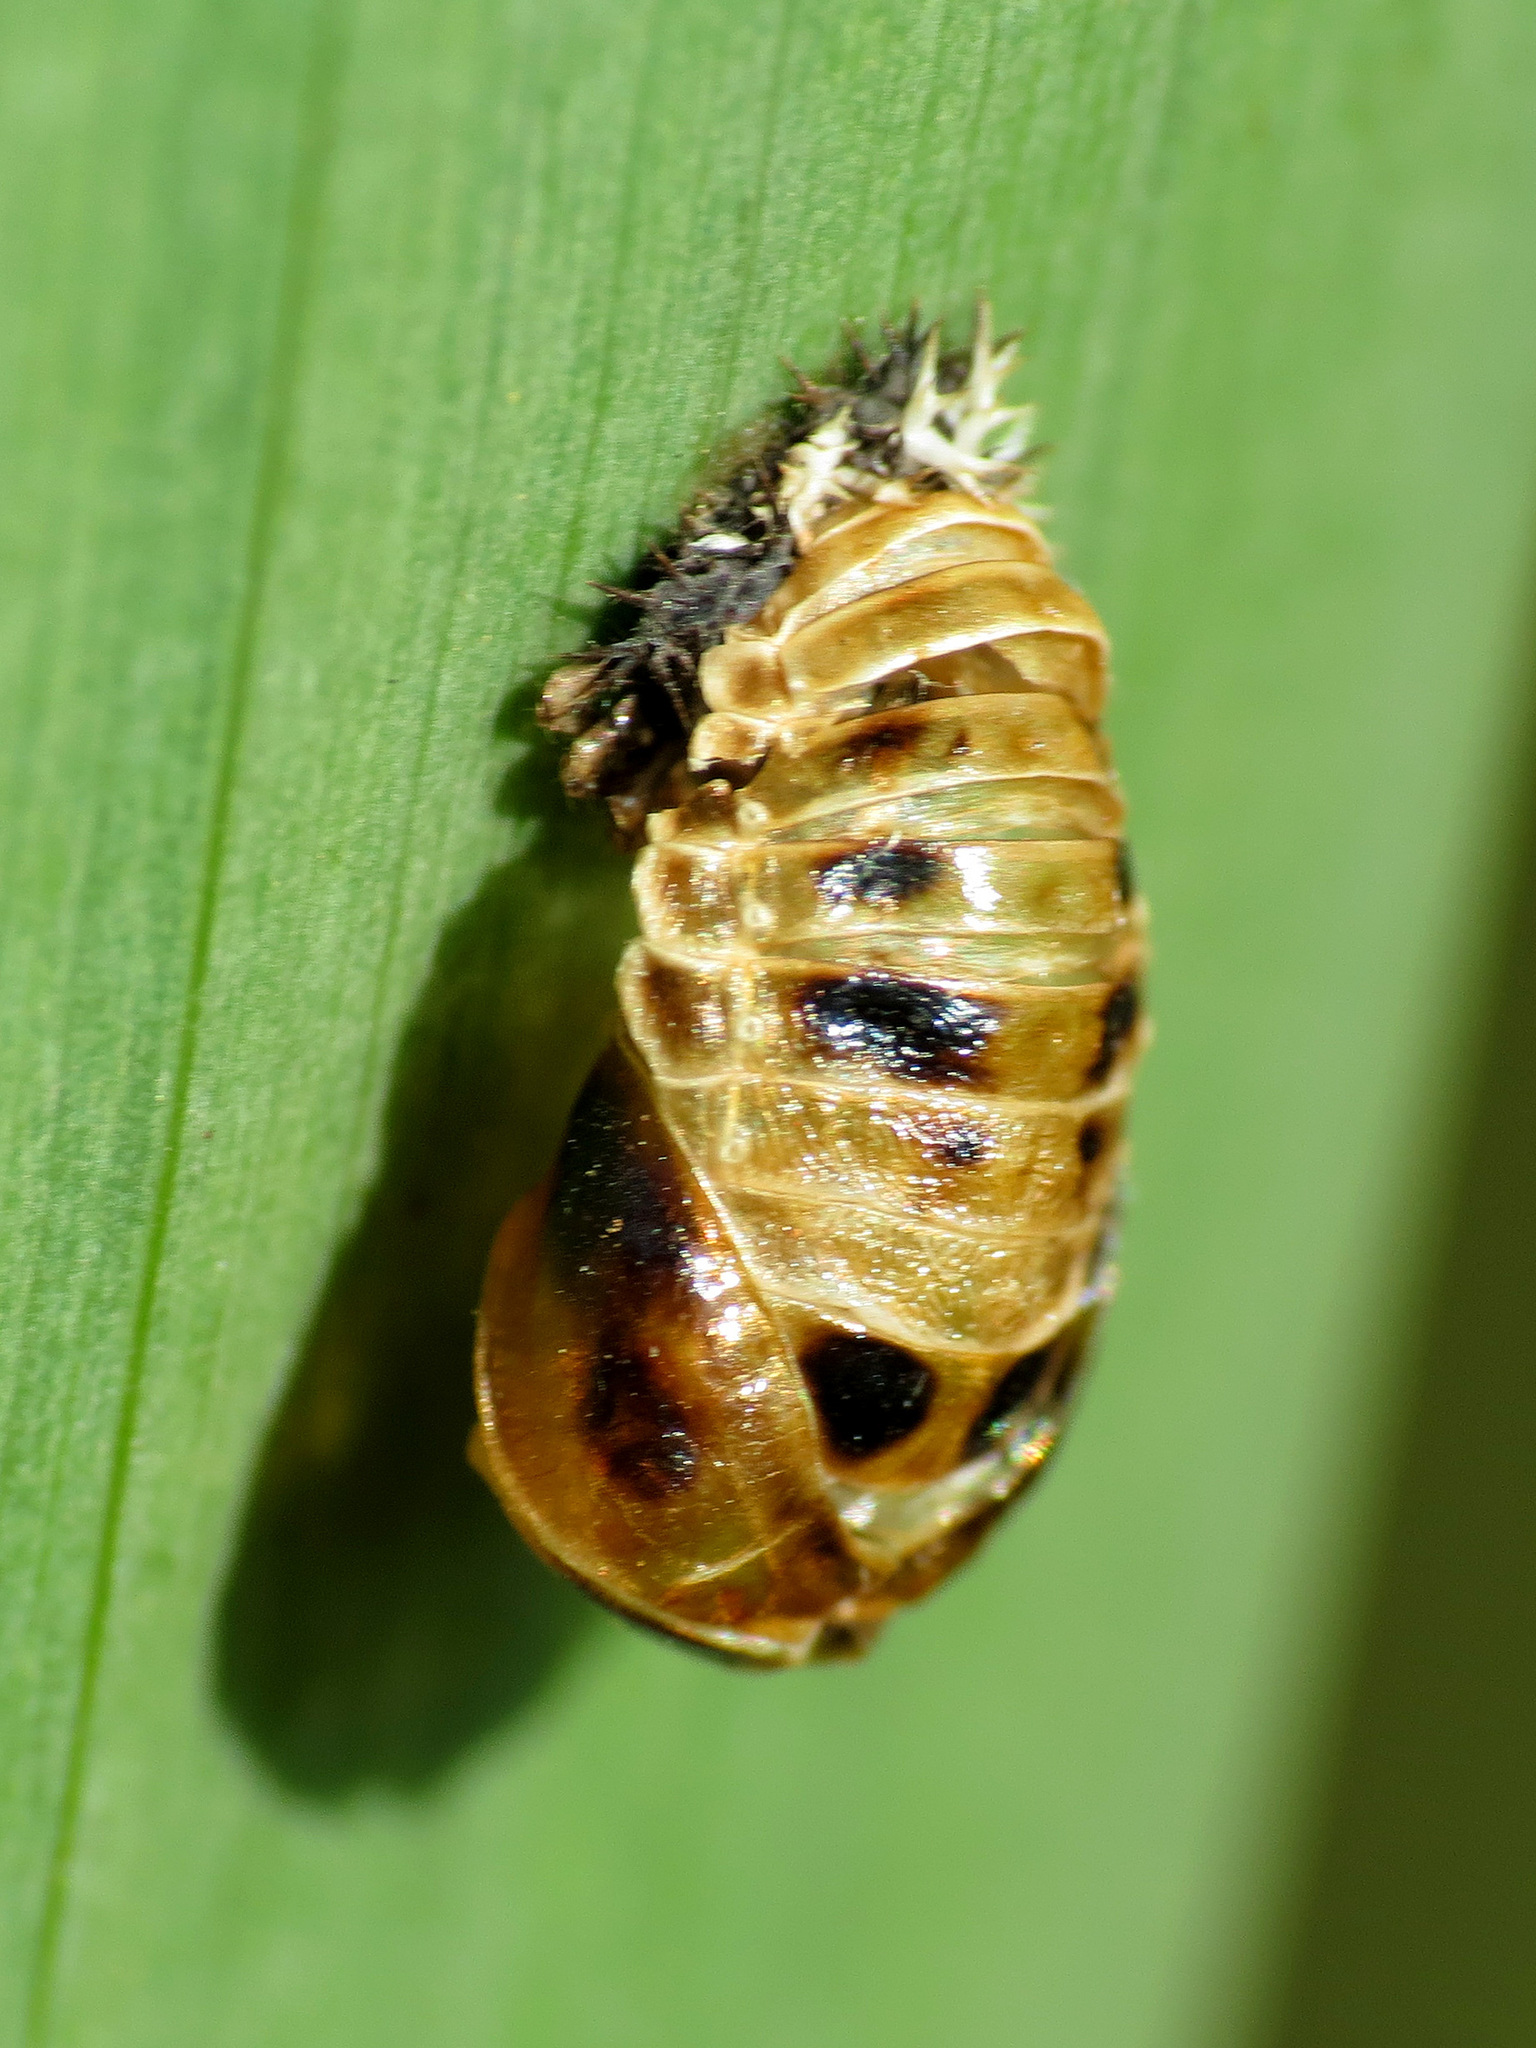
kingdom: Animalia
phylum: Arthropoda
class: Insecta
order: Coleoptera
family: Coccinellidae
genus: Harmonia
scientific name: Harmonia axyridis
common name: Harlequin ladybird
